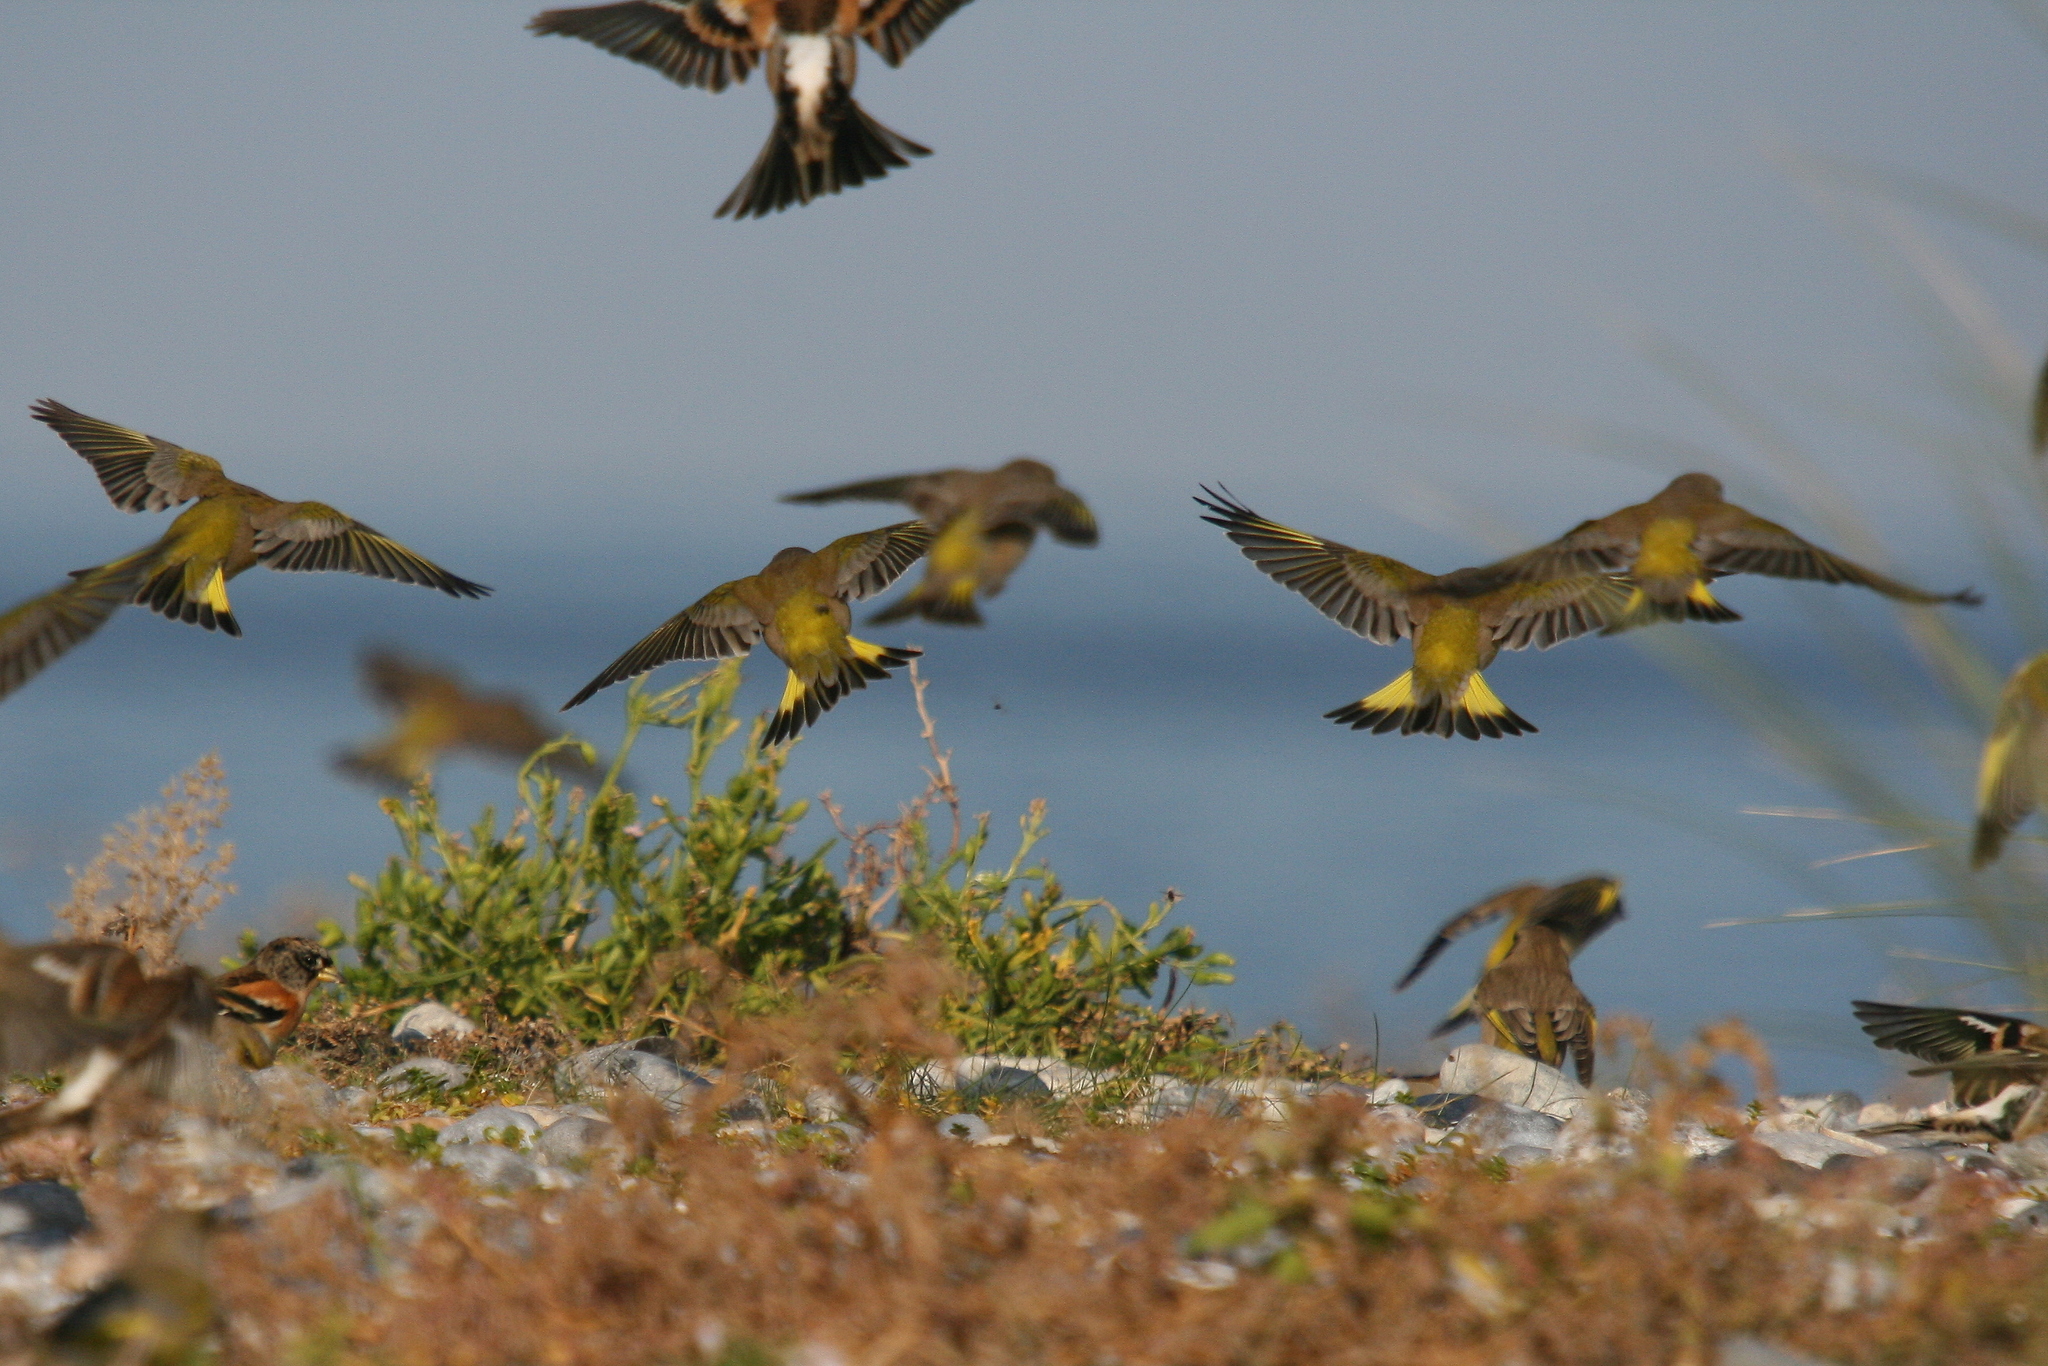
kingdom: Plantae
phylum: Tracheophyta
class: Liliopsida
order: Poales
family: Poaceae
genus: Chloris
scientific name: Chloris chloris
